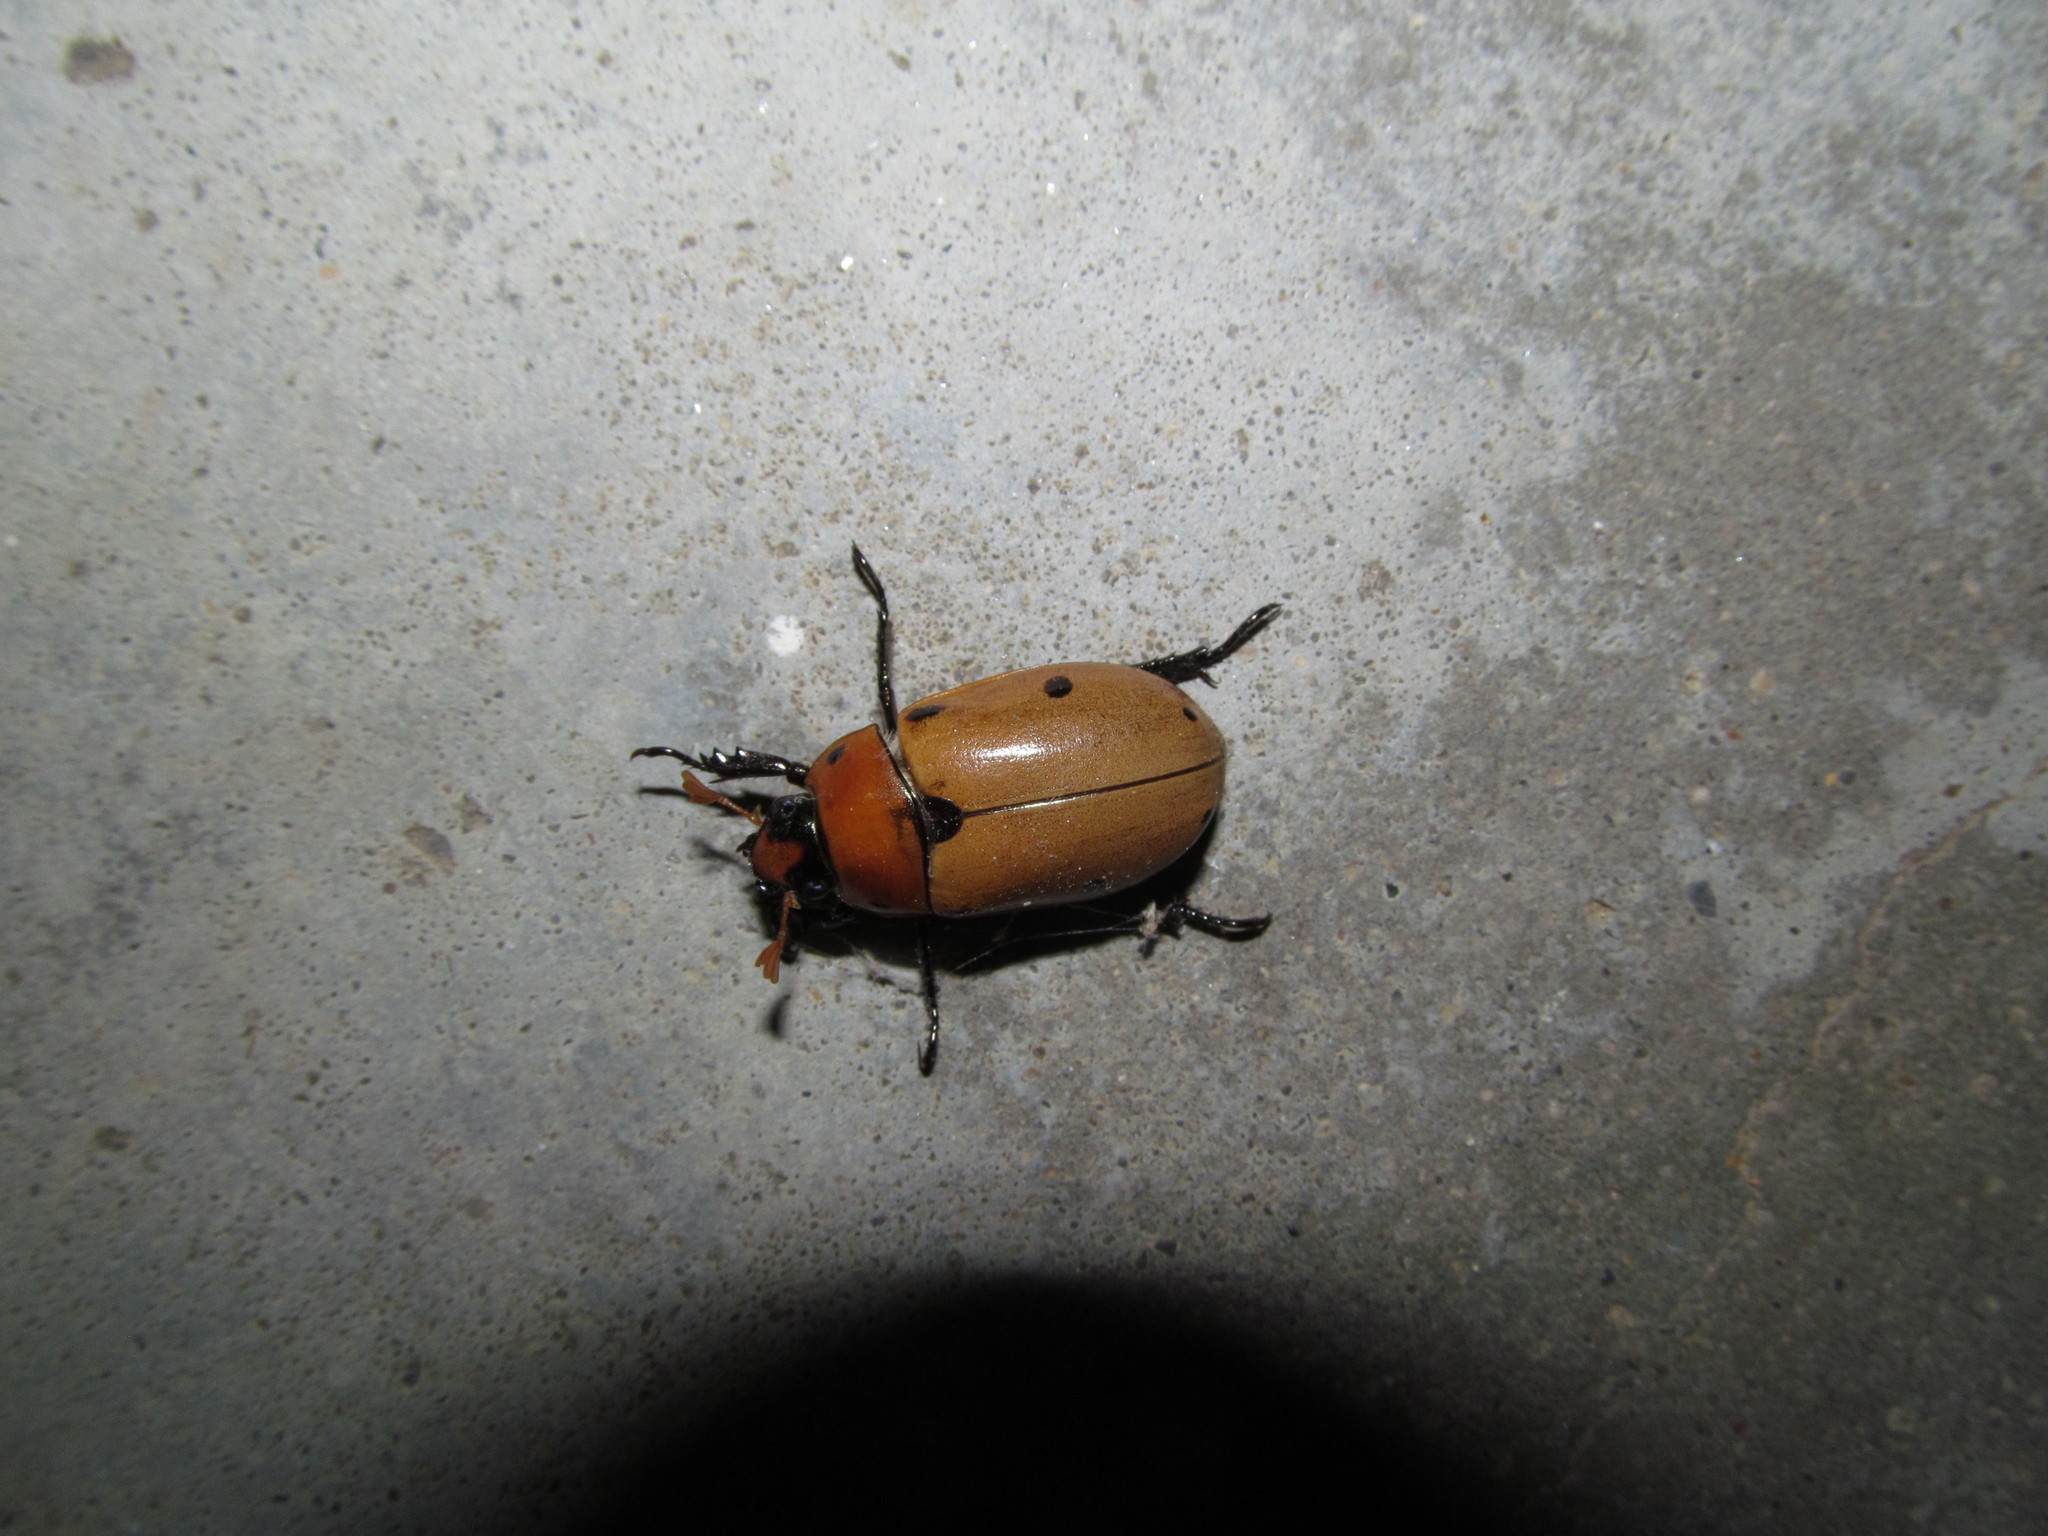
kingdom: Animalia
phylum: Arthropoda
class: Insecta
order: Coleoptera
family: Scarabaeidae
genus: Pelidnota
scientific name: Pelidnota punctata
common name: Grapevine beetle
